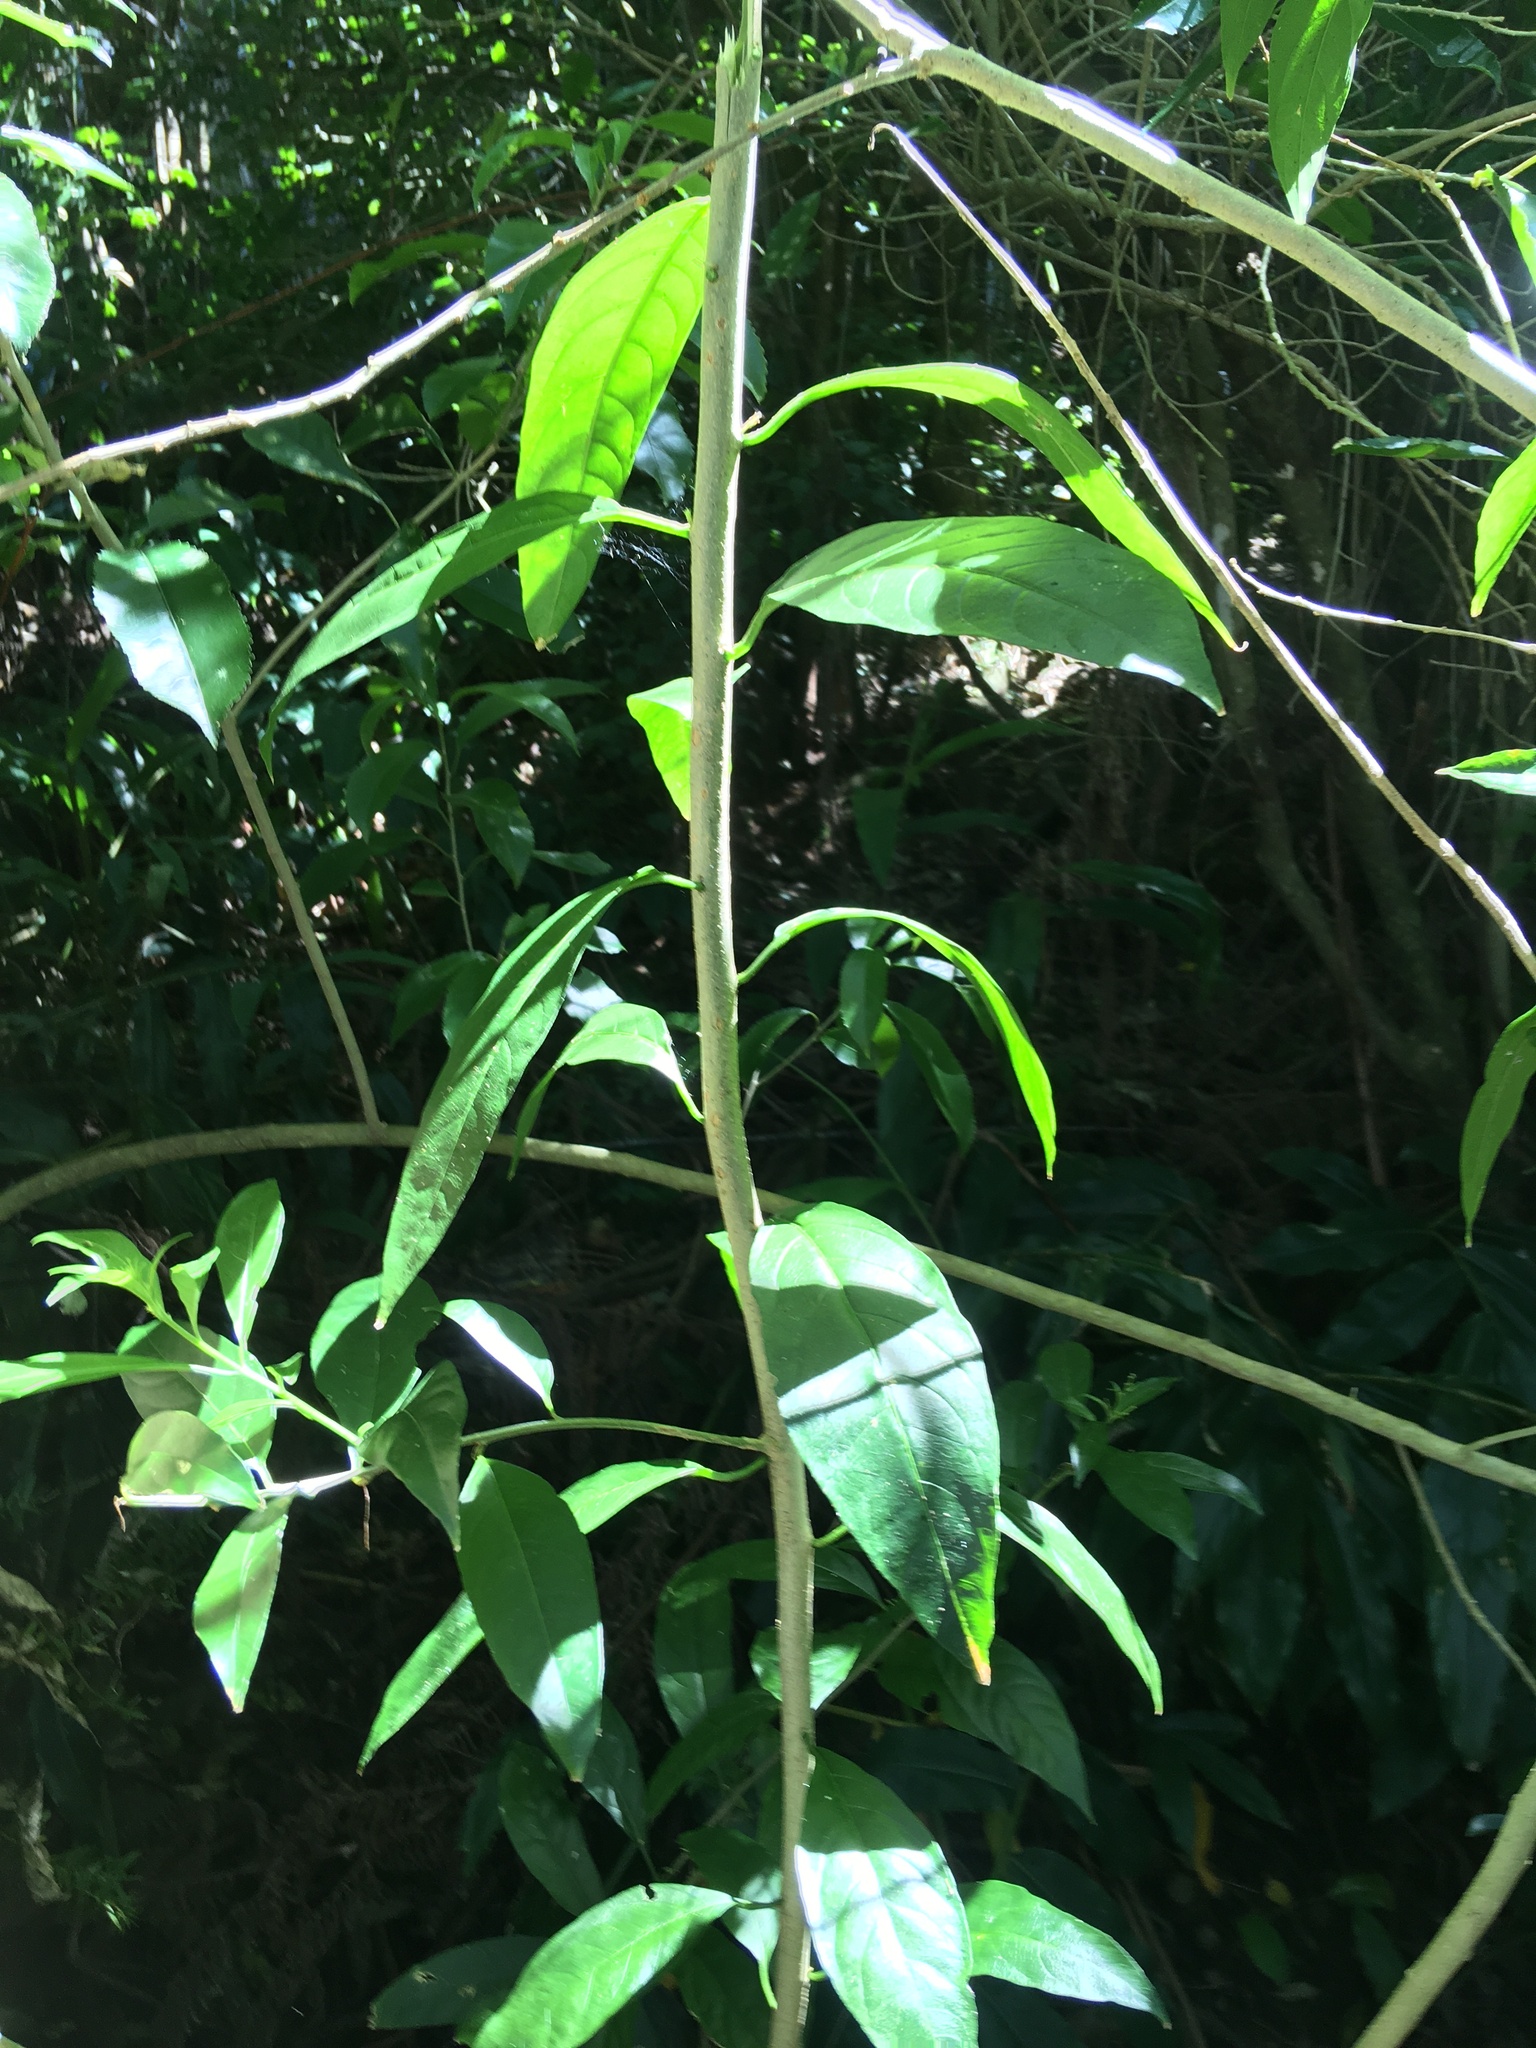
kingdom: Plantae
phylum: Tracheophyta
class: Magnoliopsida
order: Solanales
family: Solanaceae
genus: Cestrum
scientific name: Cestrum nocturnum
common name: Night jessamine
